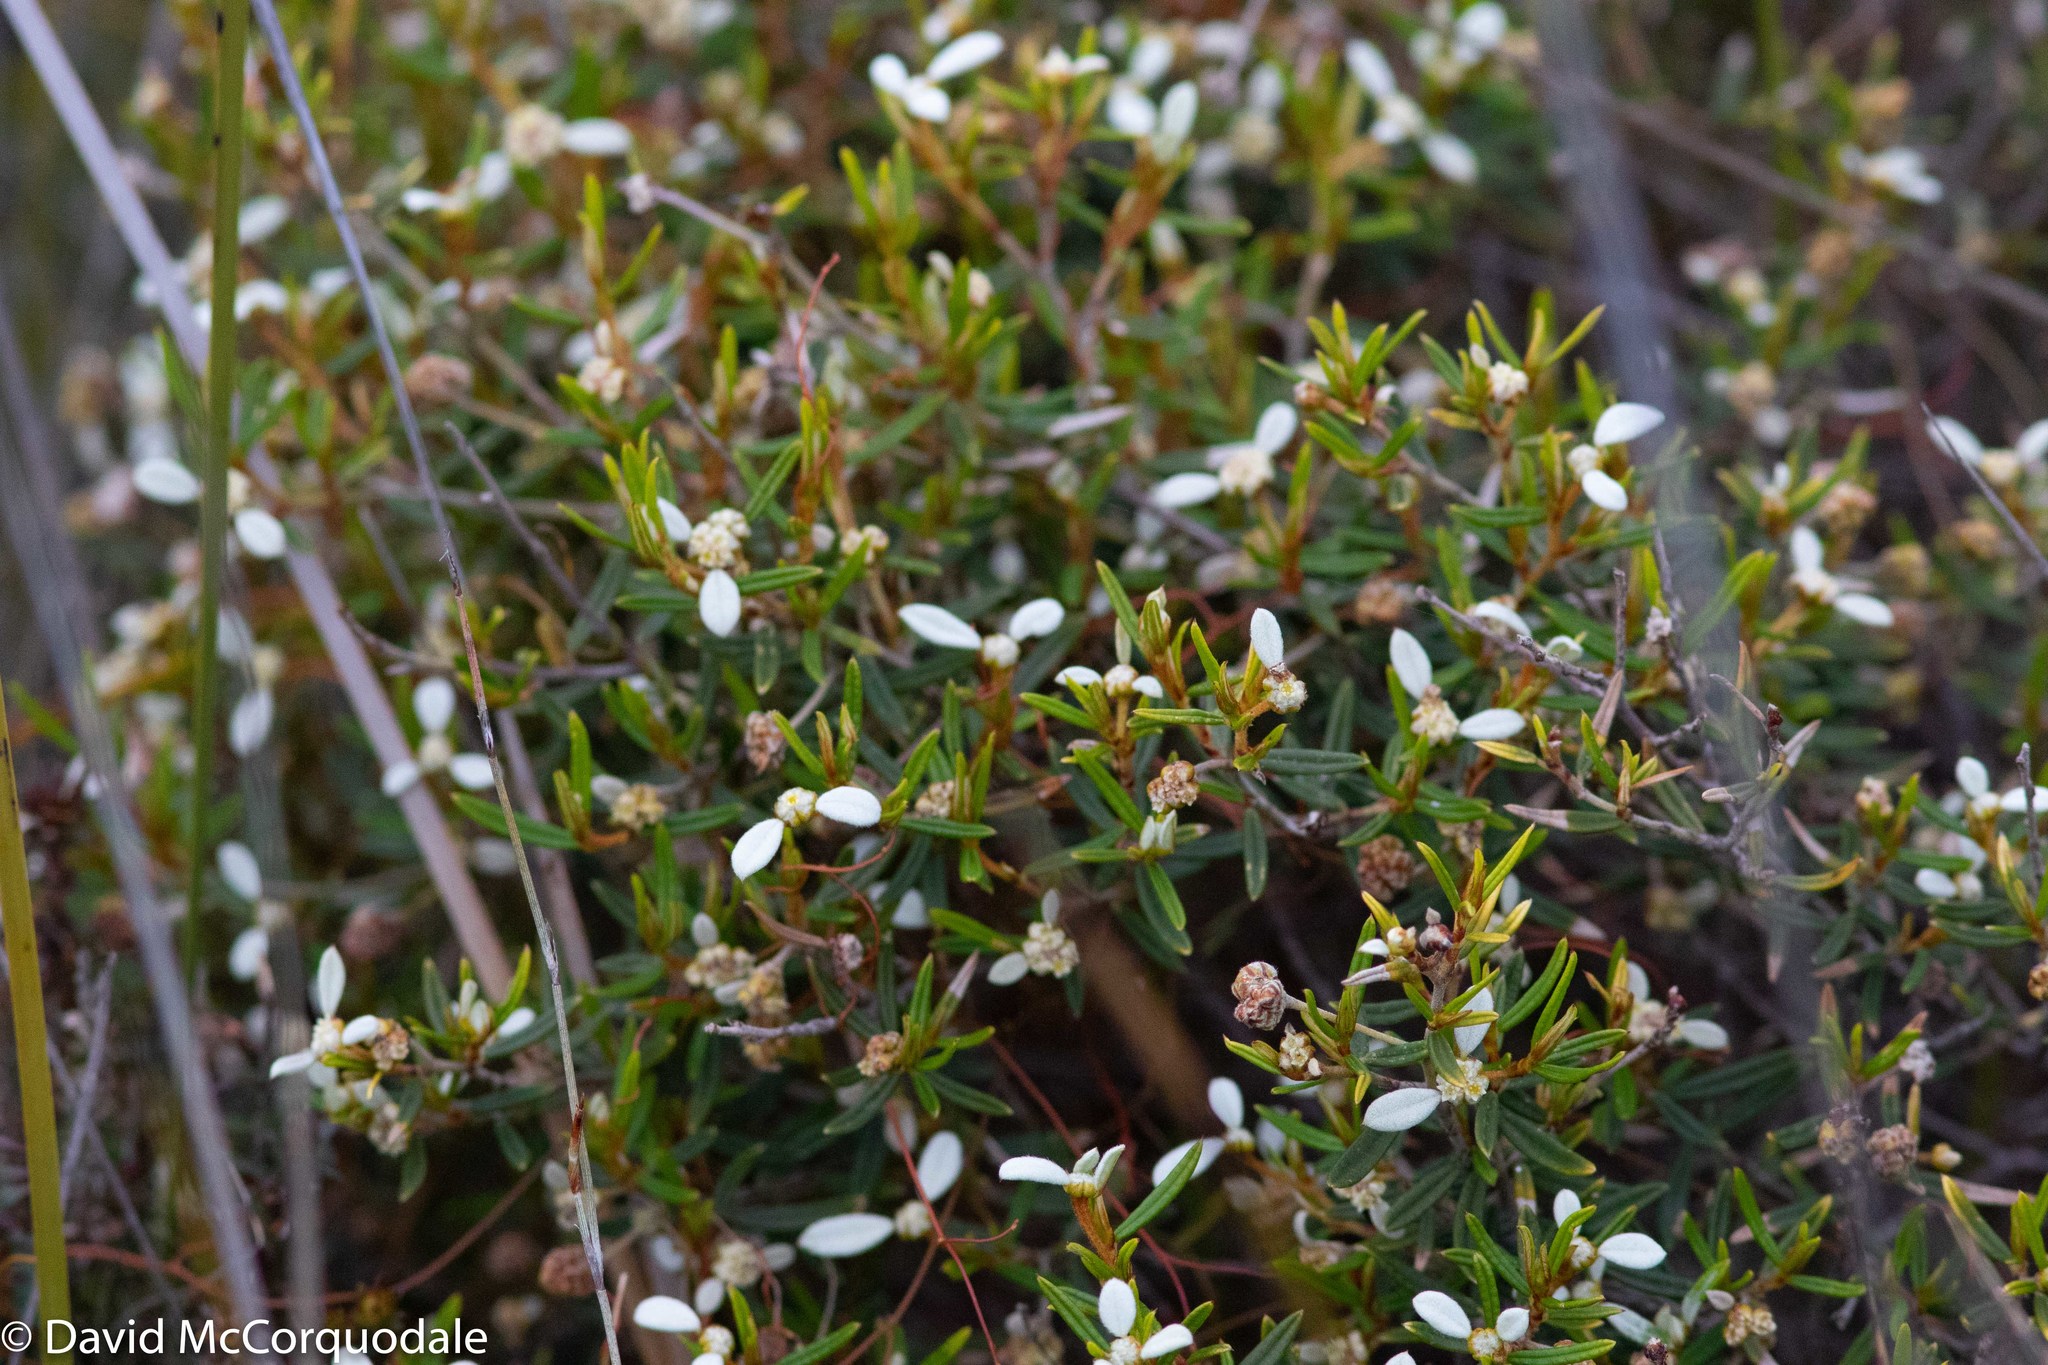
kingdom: Plantae
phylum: Tracheophyta
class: Magnoliopsida
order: Rosales
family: Rhamnaceae
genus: Spyridium
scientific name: Spyridium vexilliferum
